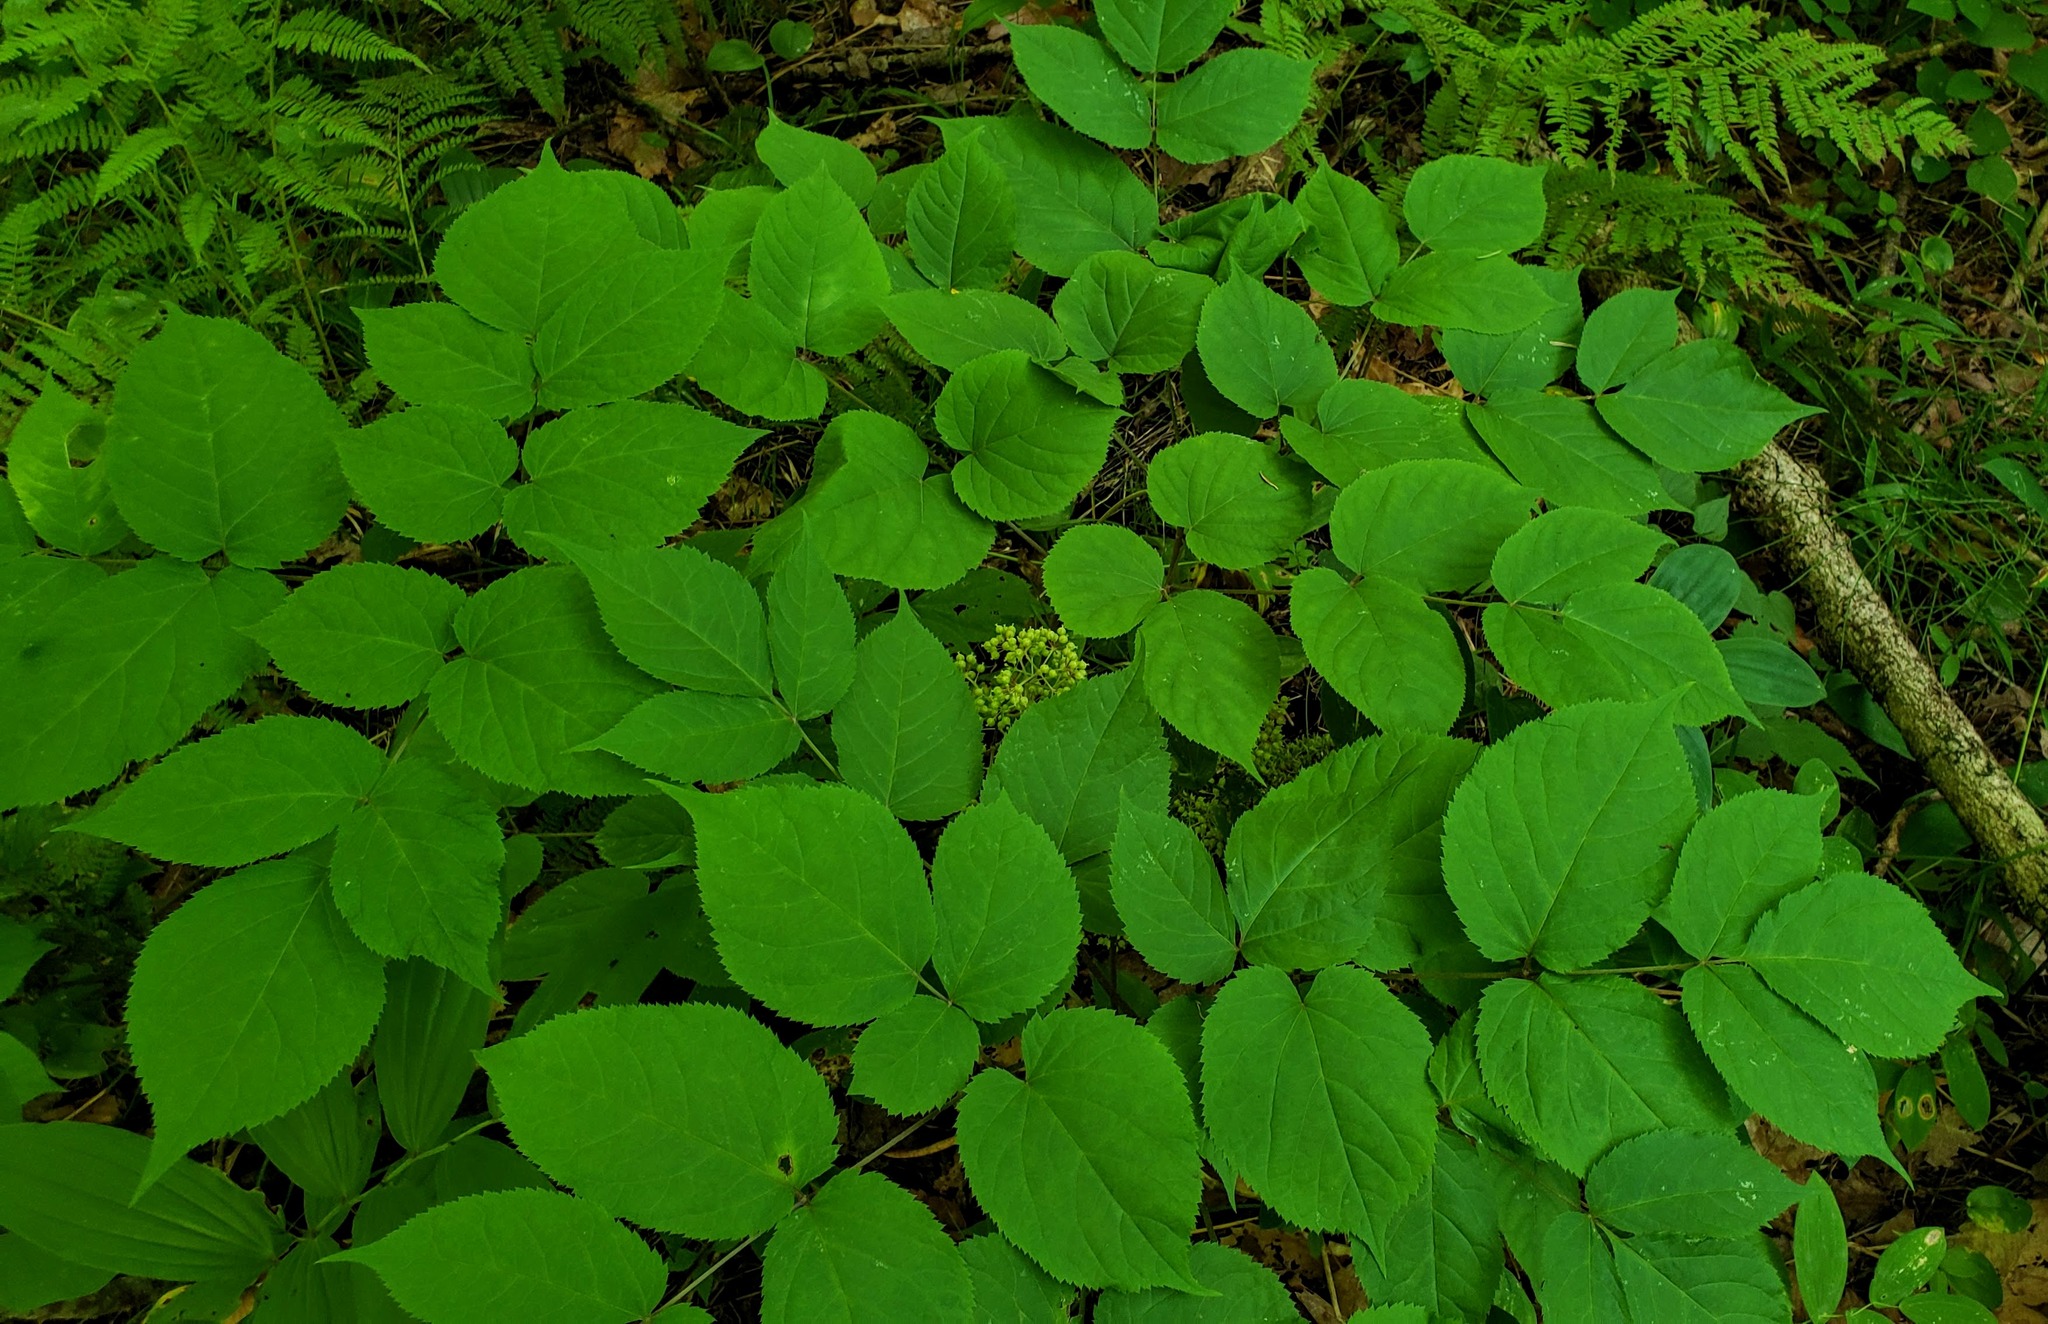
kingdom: Plantae
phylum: Tracheophyta
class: Magnoliopsida
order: Apiales
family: Araliaceae
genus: Aralia
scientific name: Aralia racemosa
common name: American-spikenard
